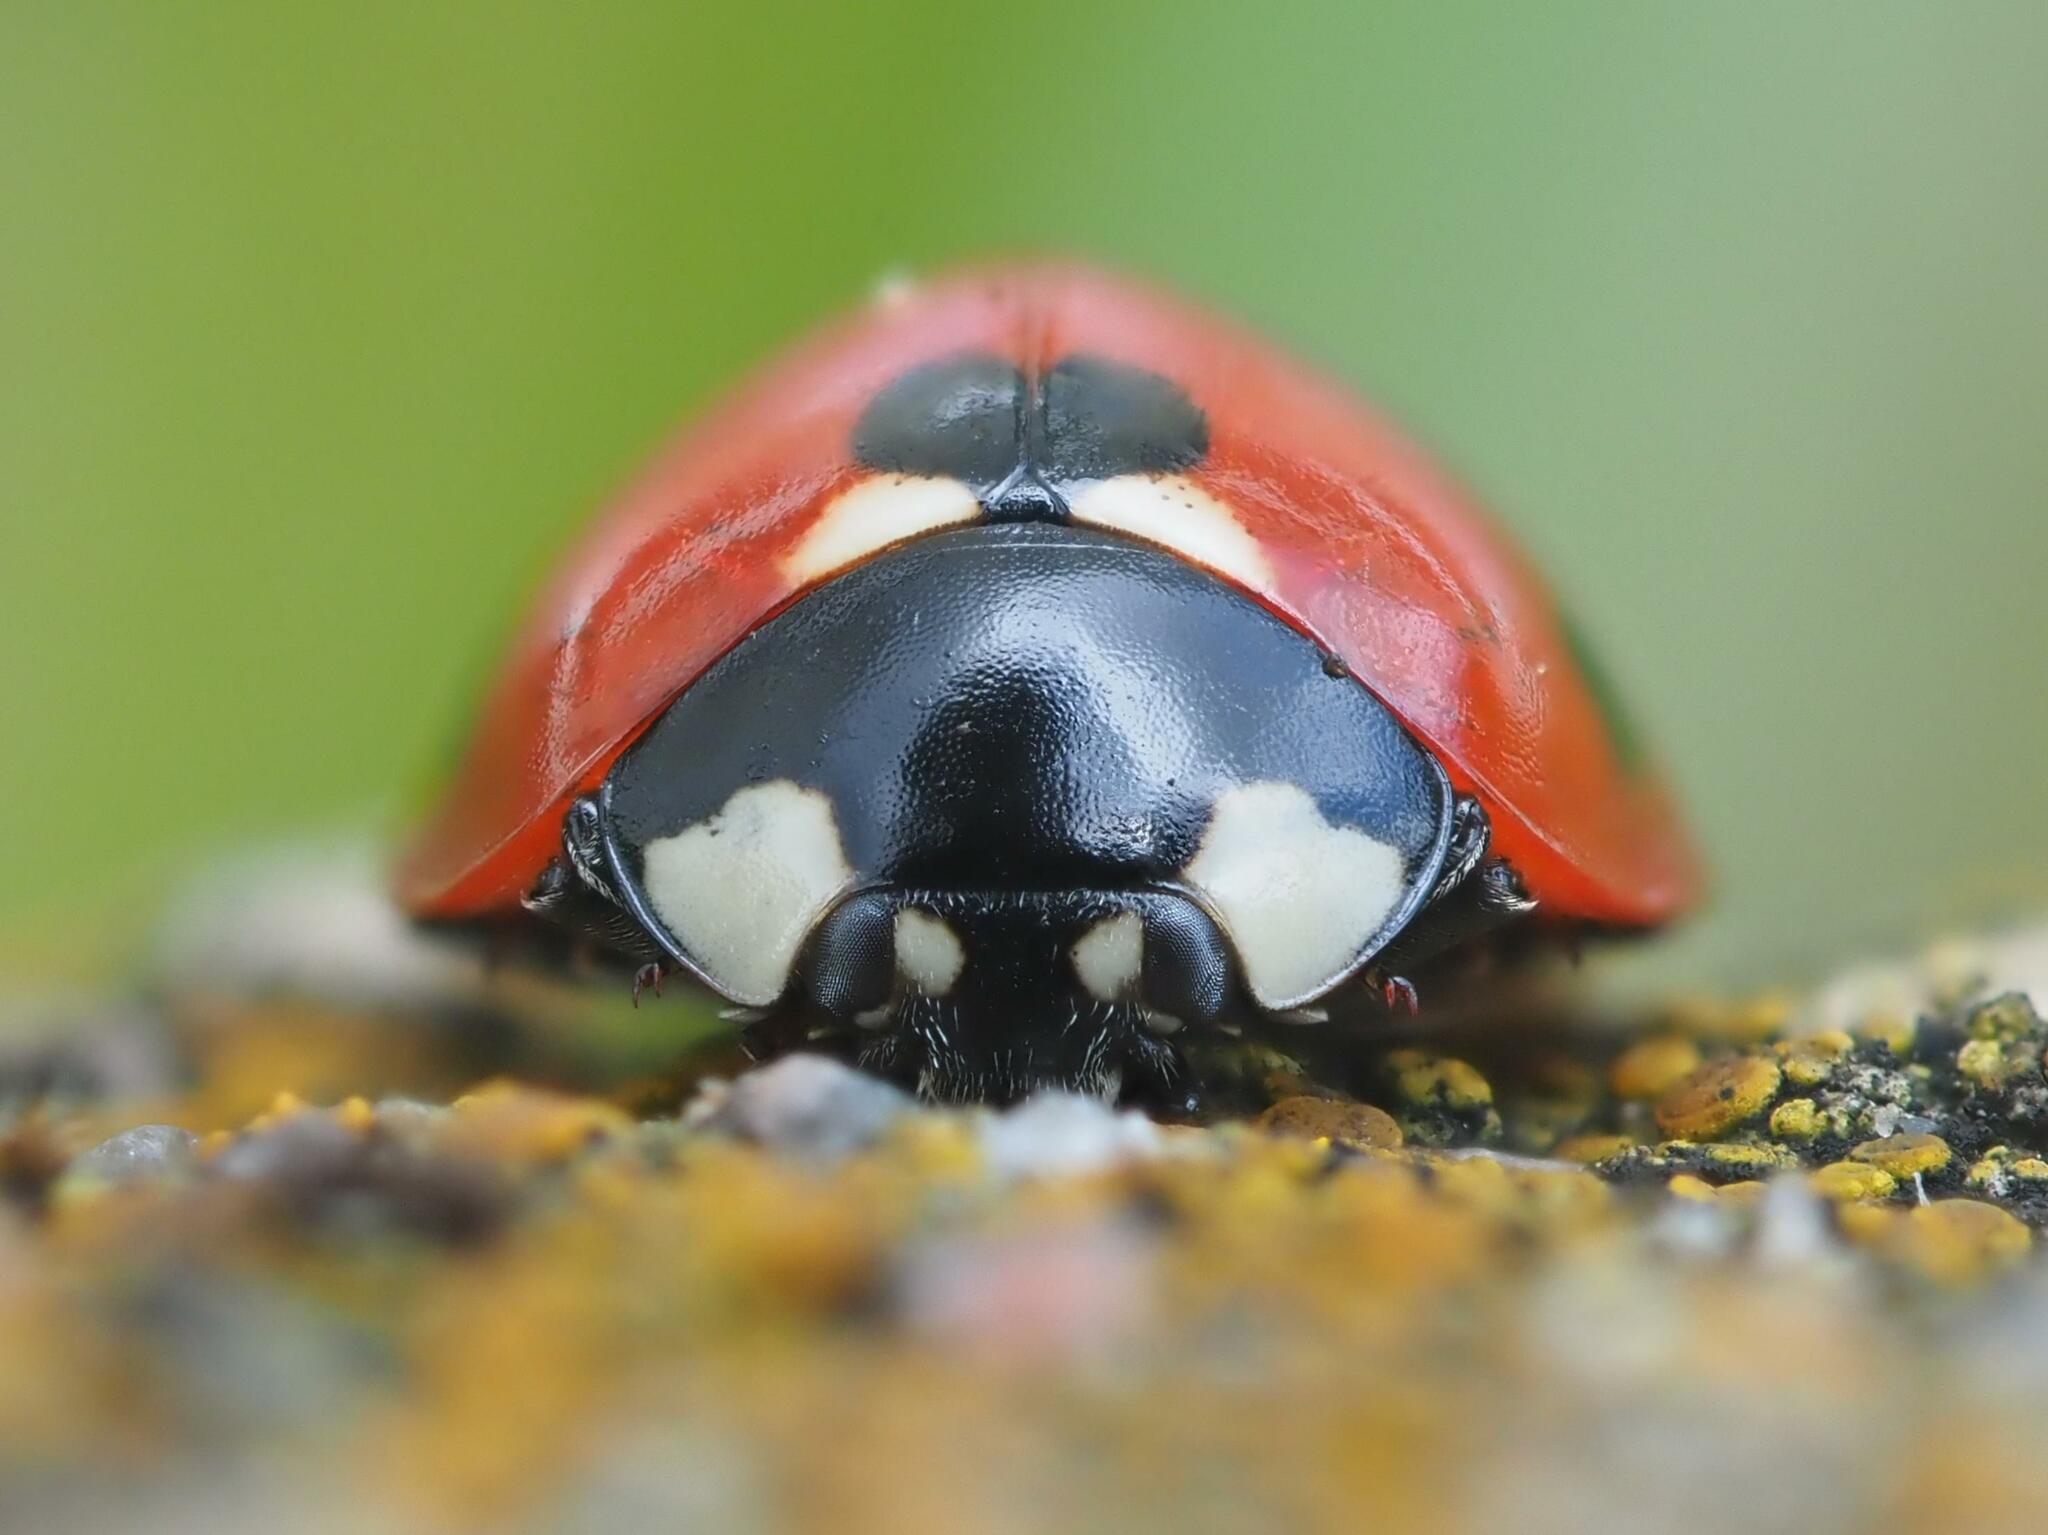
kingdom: Animalia
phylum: Arthropoda
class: Insecta
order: Coleoptera
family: Coccinellidae
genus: Coccinella
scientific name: Coccinella septempunctata
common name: Sevenspotted lady beetle
